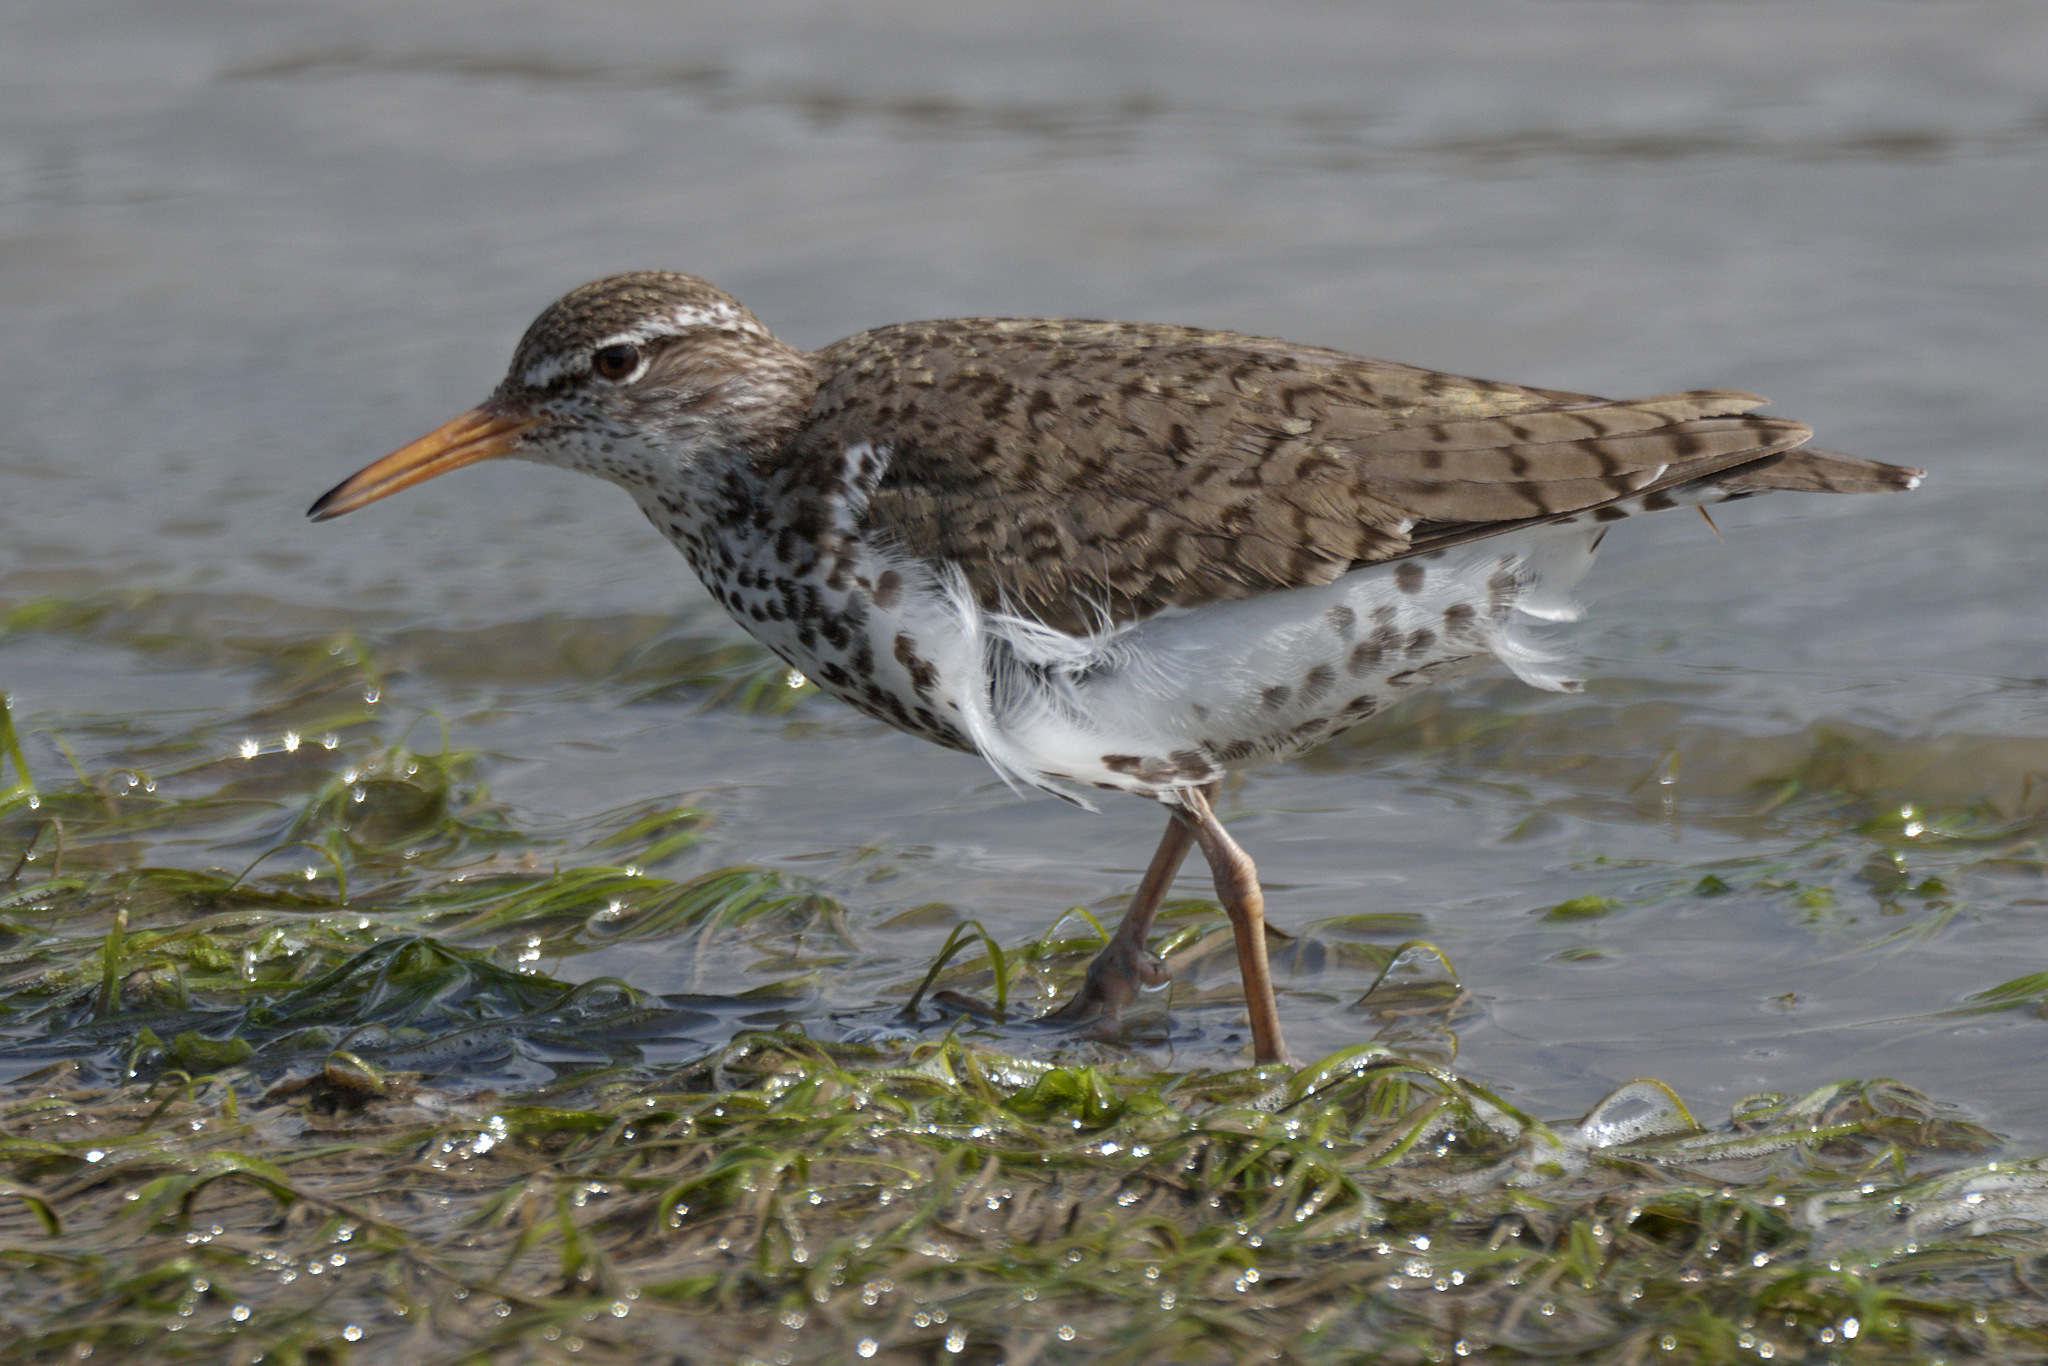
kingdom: Animalia
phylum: Chordata
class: Aves
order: Charadriiformes
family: Scolopacidae
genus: Actitis
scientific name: Actitis macularius
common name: Spotted sandpiper
